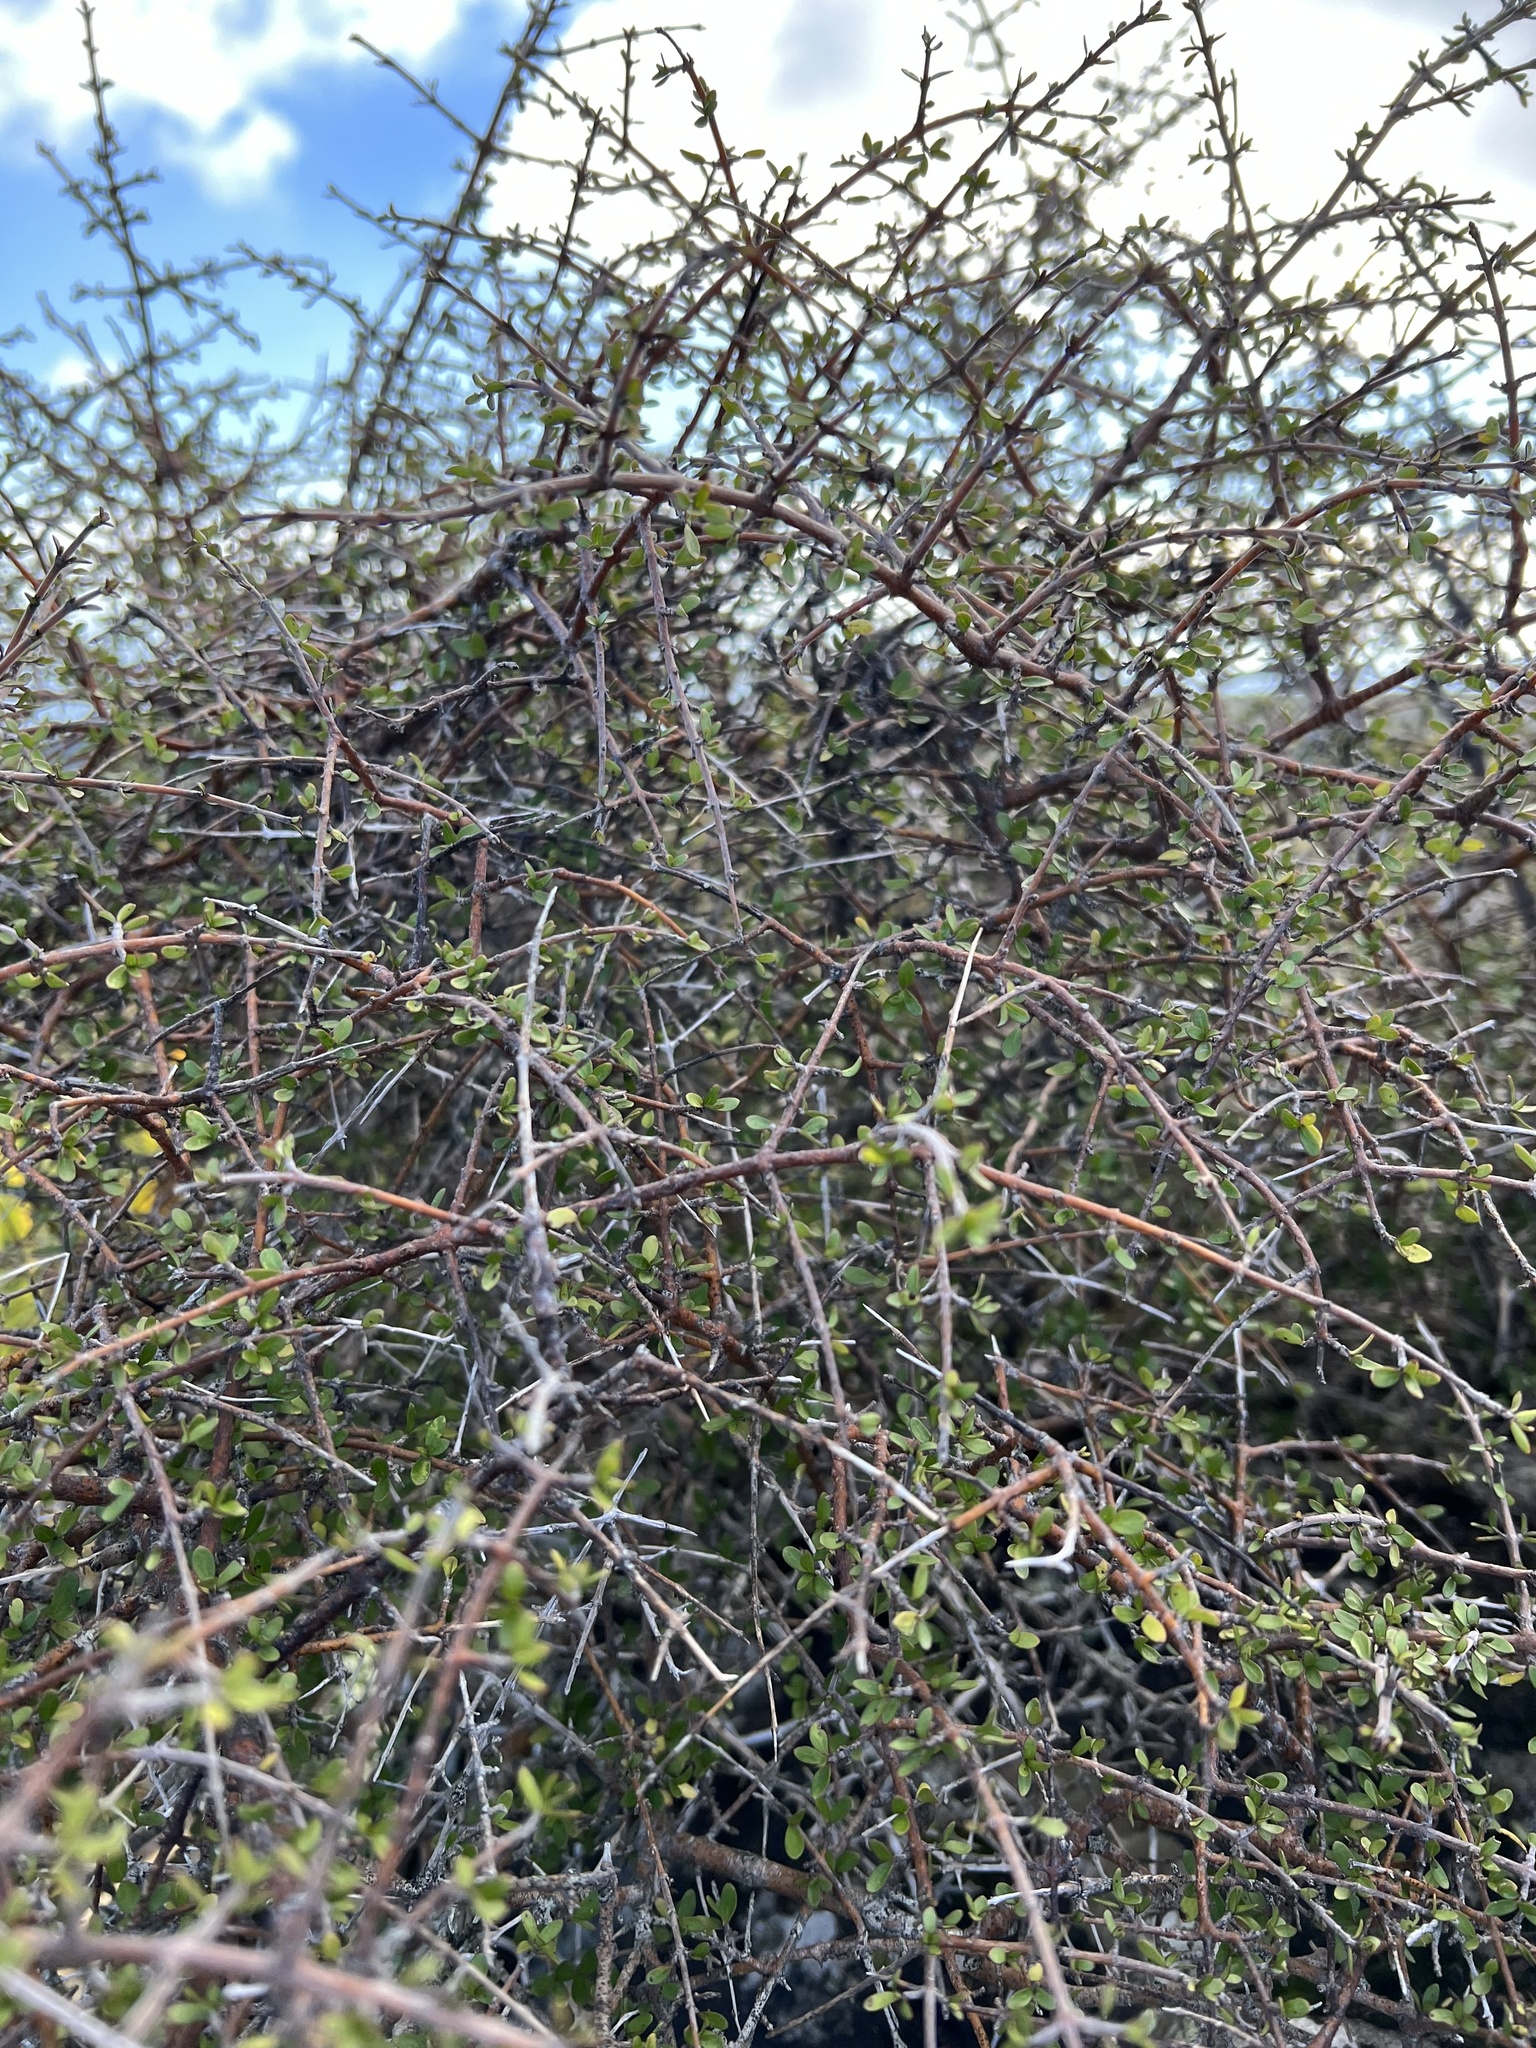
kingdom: Plantae
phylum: Tracheophyta
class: Magnoliopsida
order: Gentianales
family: Rubiaceae
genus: Coprosma
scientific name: Coprosma rigida
